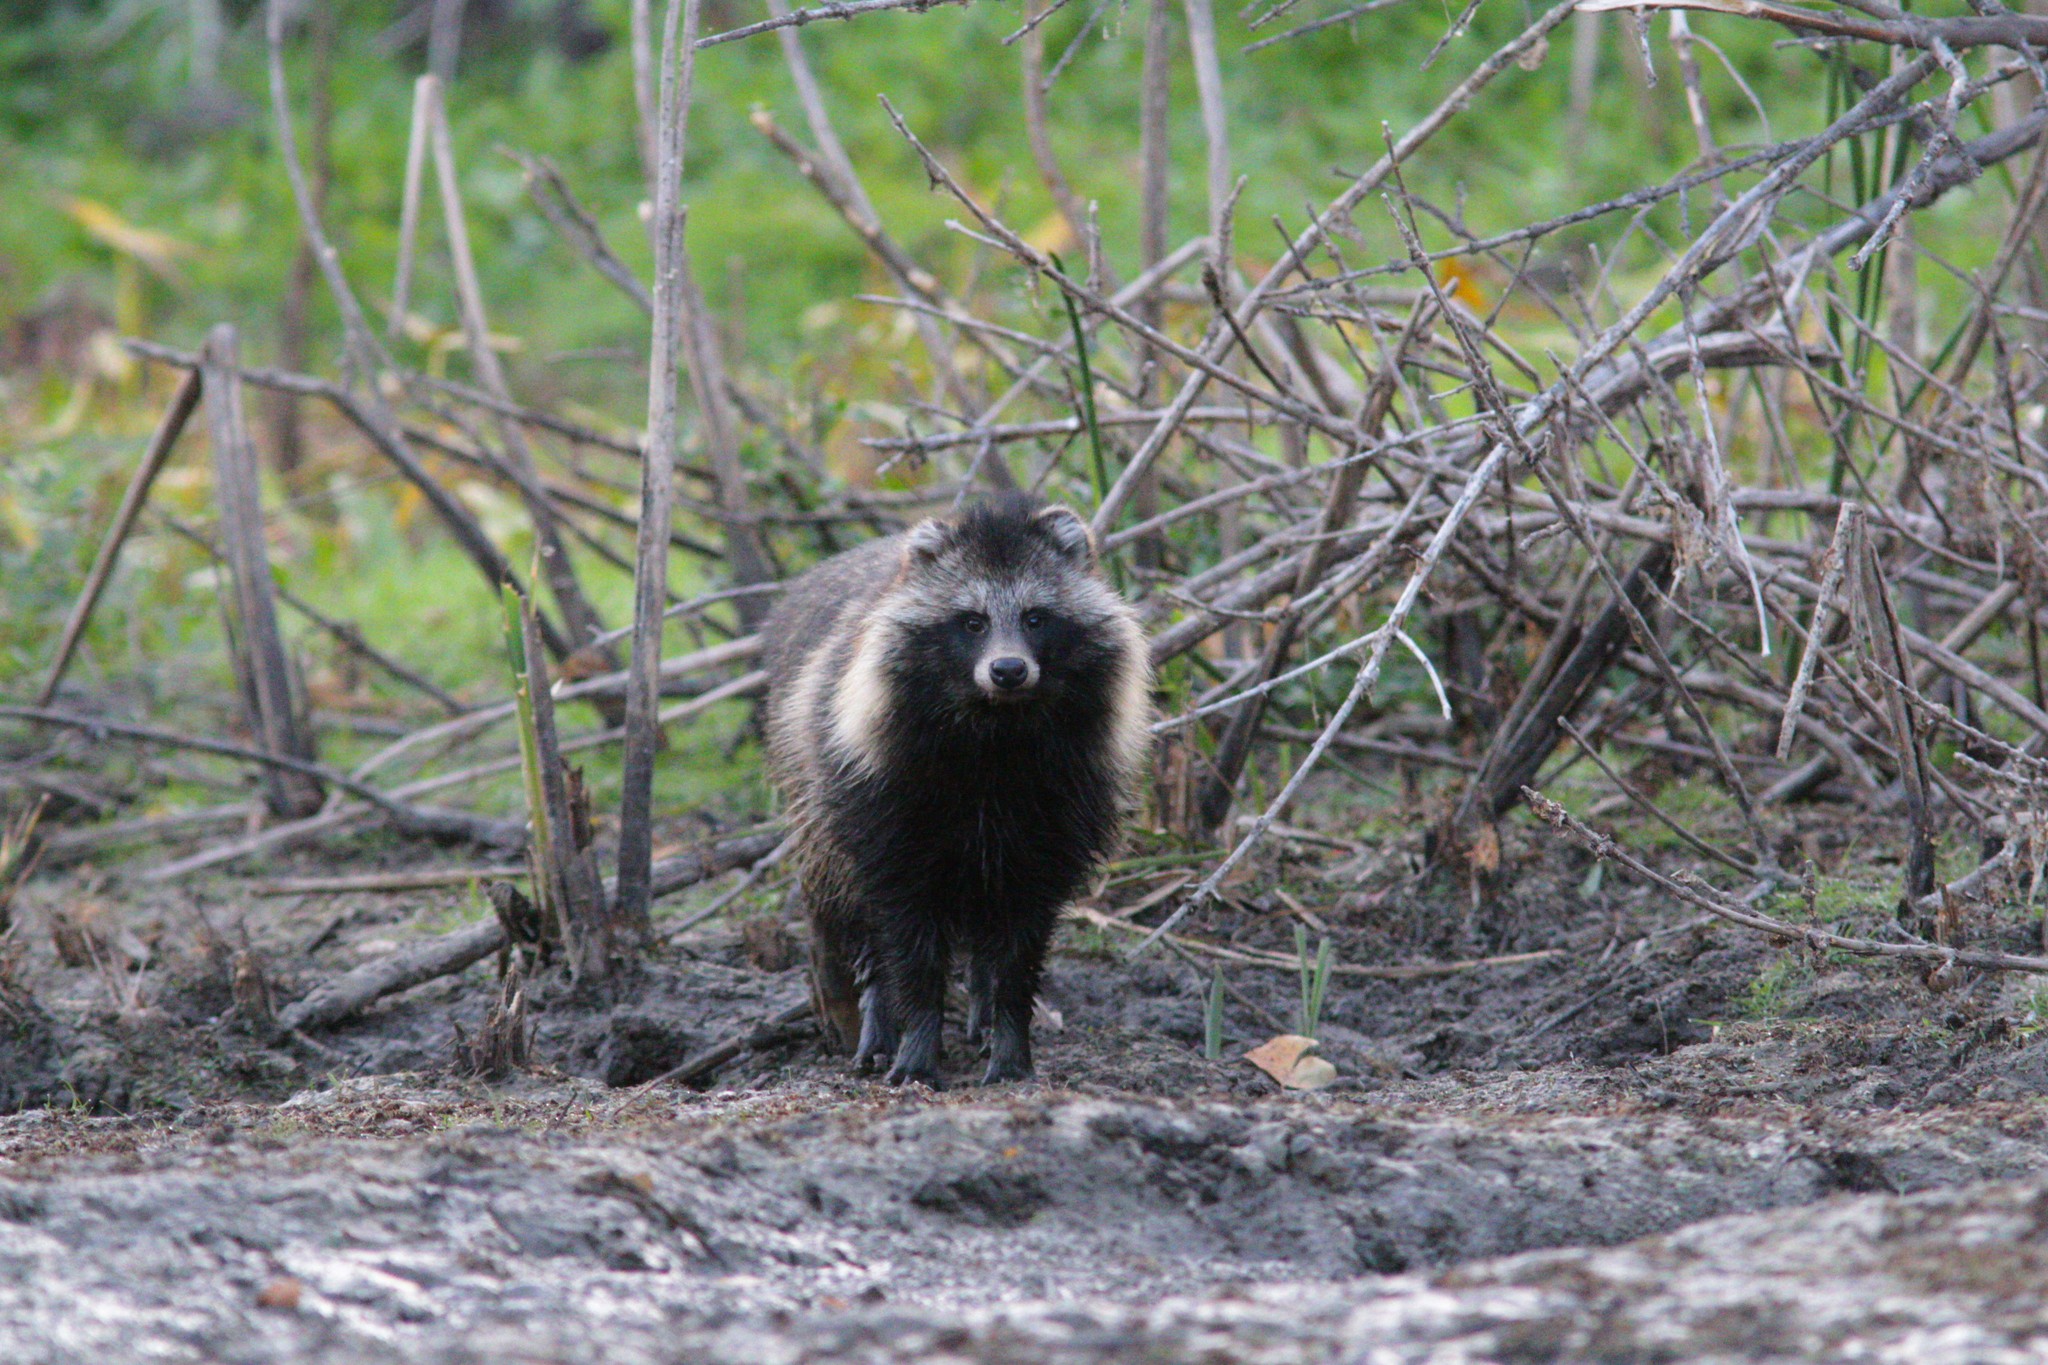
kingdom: Animalia
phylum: Chordata
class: Mammalia
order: Carnivora
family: Canidae
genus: Nyctereutes
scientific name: Nyctereutes procyonoides
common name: Raccoon dog
